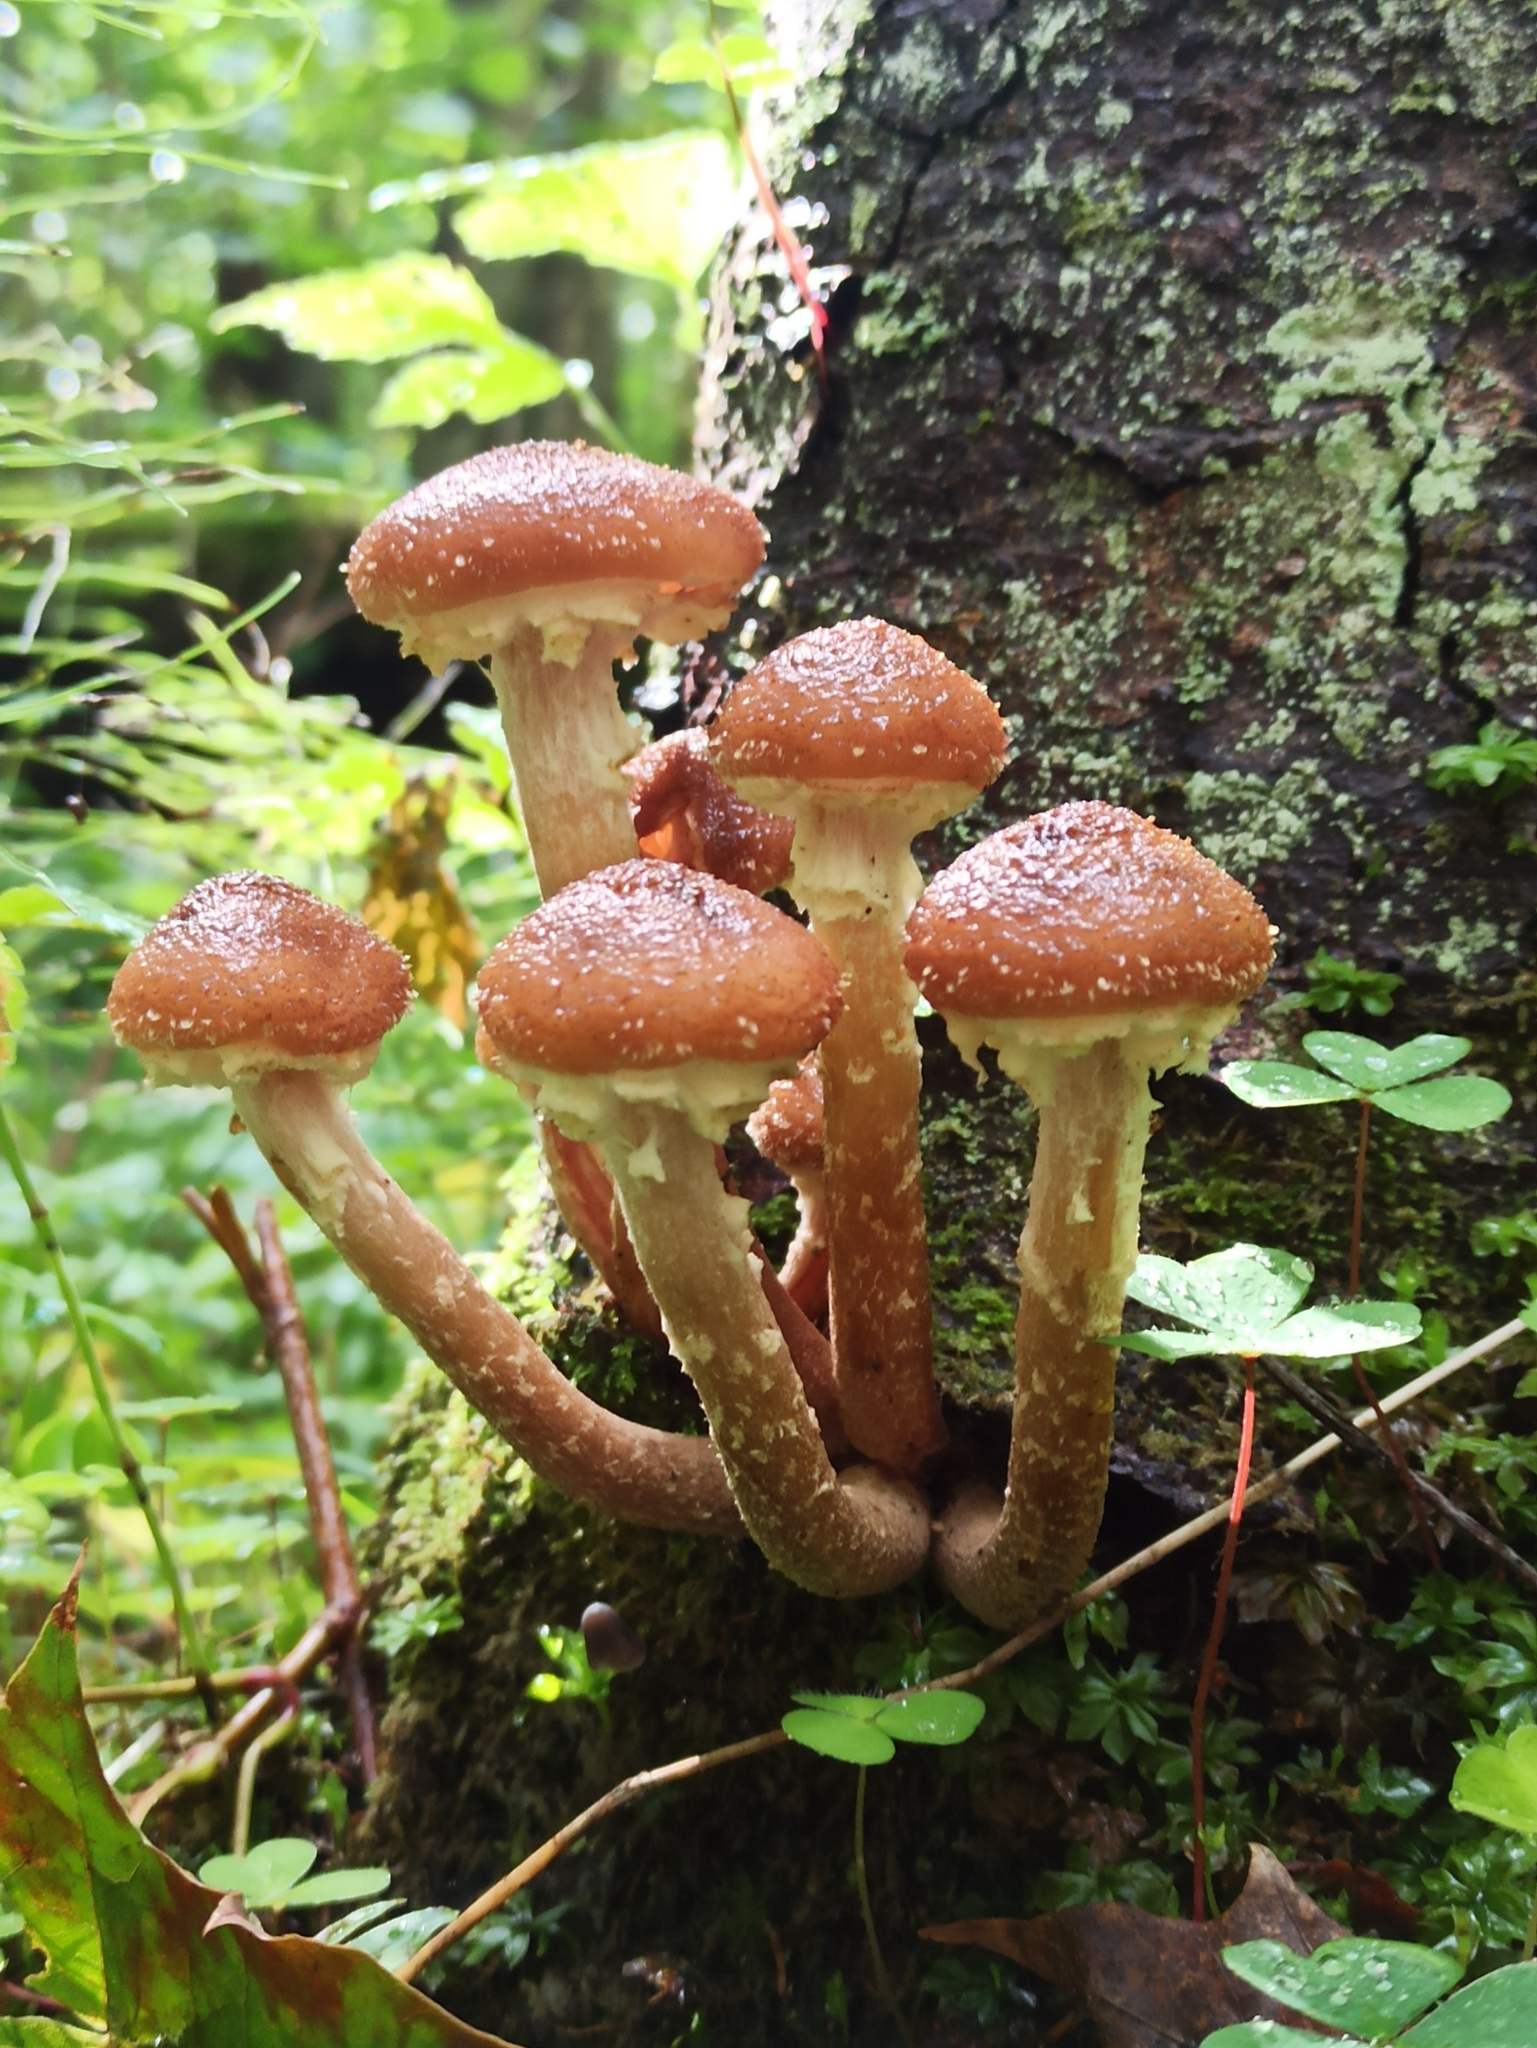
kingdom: Fungi
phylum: Basidiomycota
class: Agaricomycetes
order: Agaricales
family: Physalacriaceae
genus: Armillaria
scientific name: Armillaria mellea
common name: Honey fungus
